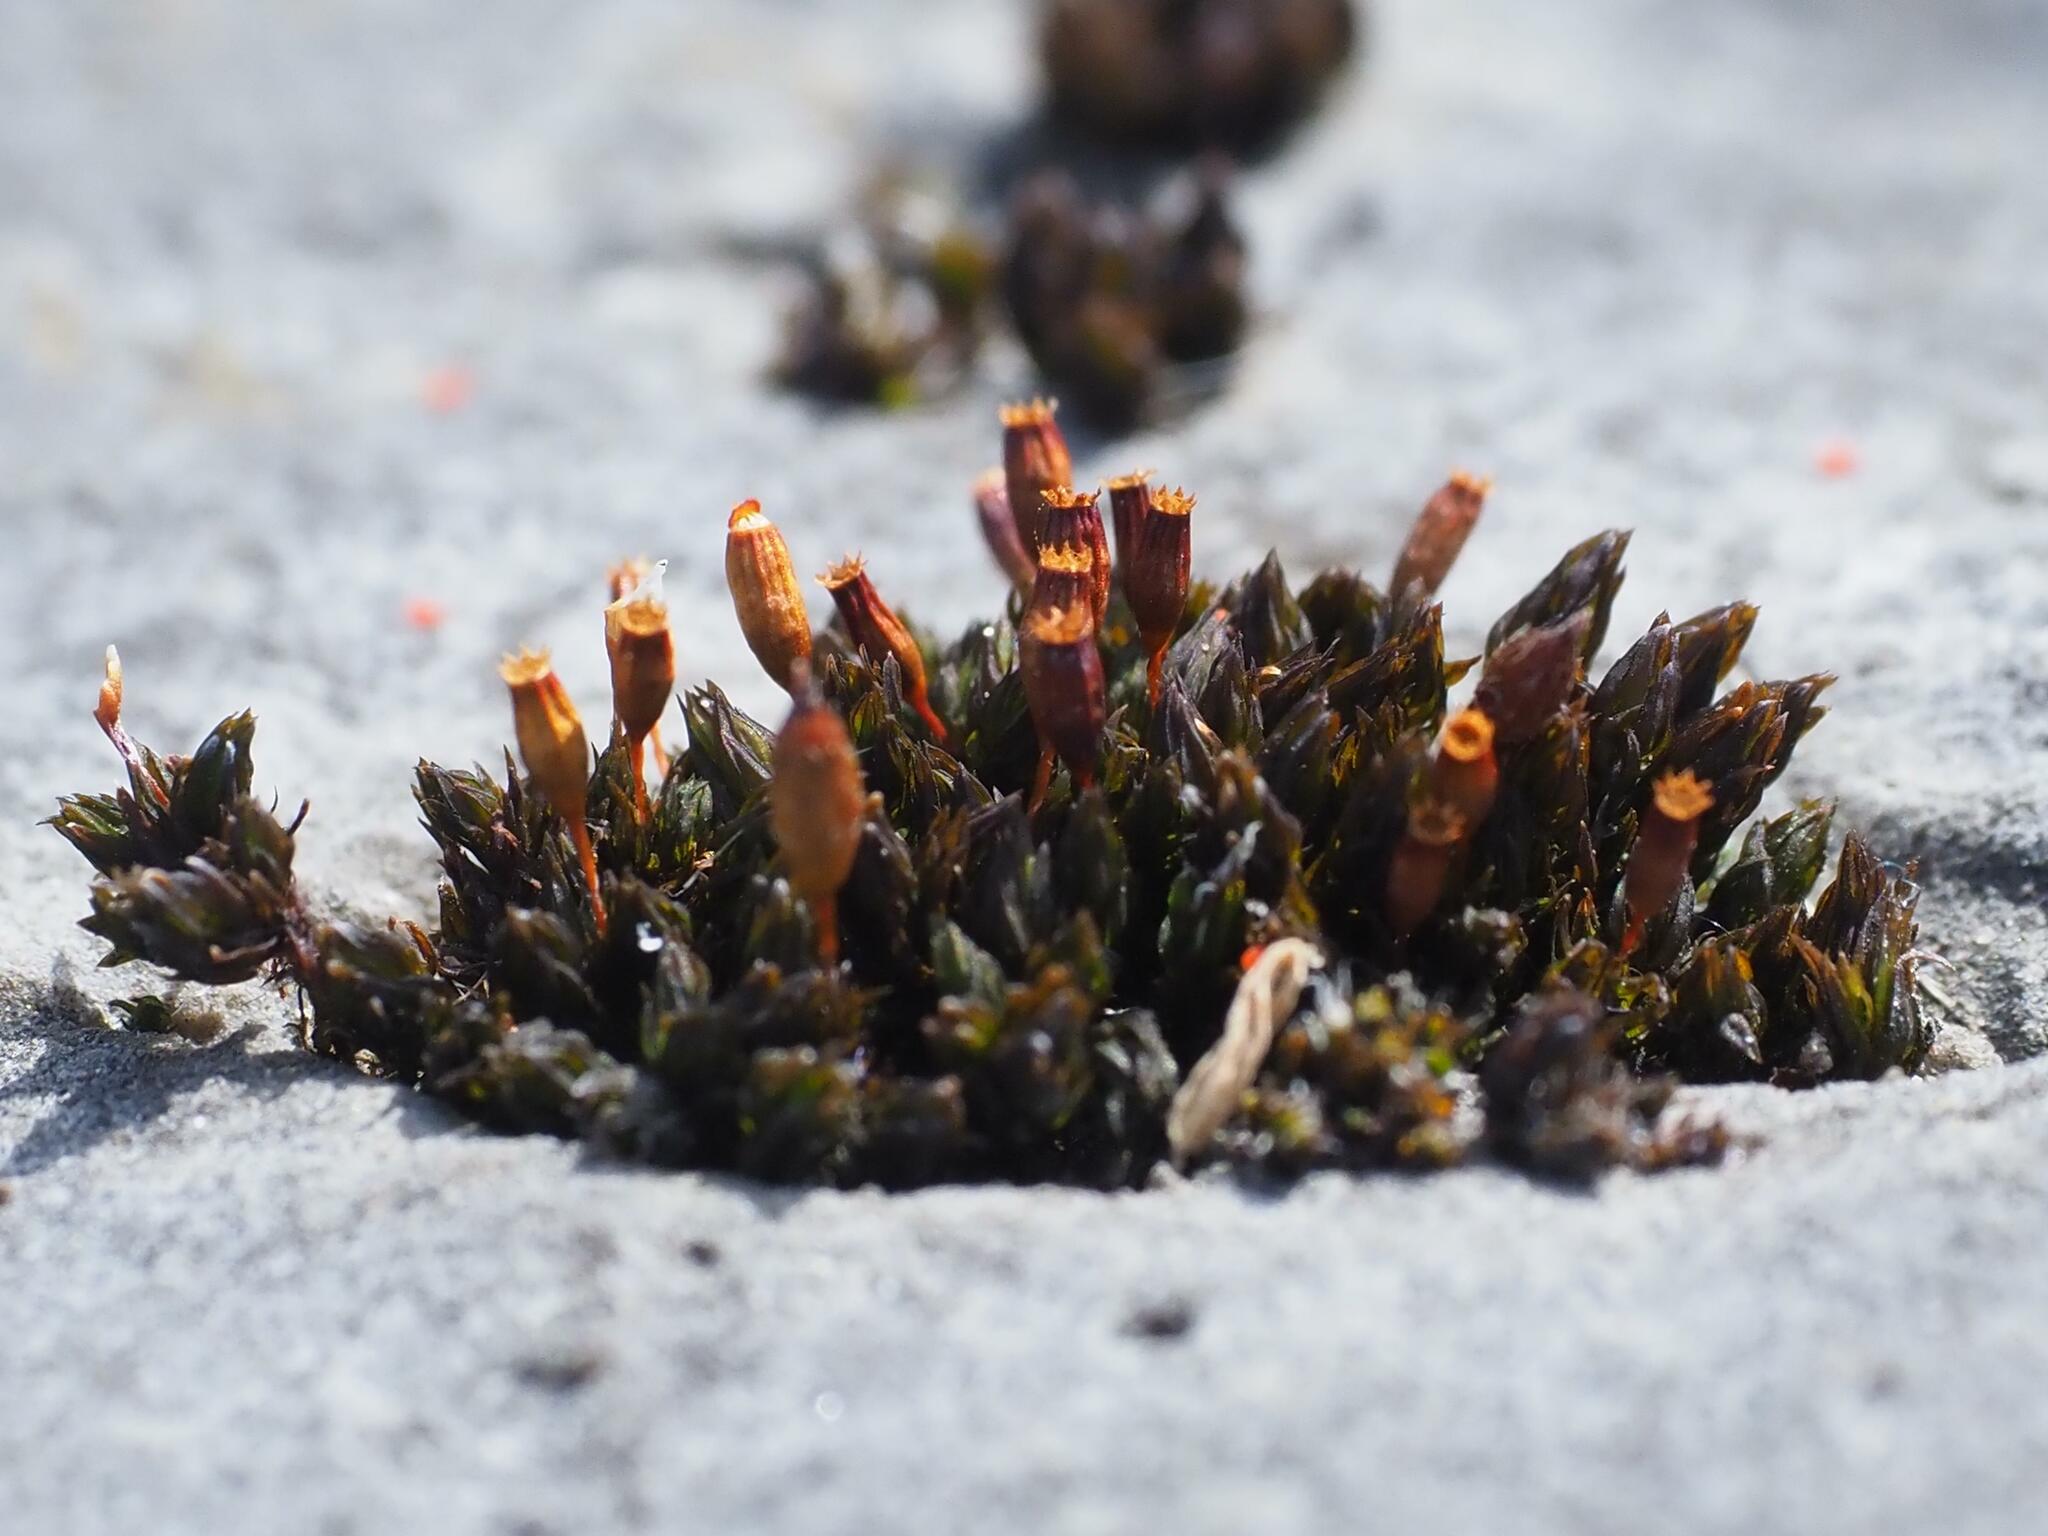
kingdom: Plantae
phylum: Bryophyta
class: Bryopsida
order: Orthotrichales
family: Orthotrichaceae
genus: Orthotrichum
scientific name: Orthotrichum anomalum
